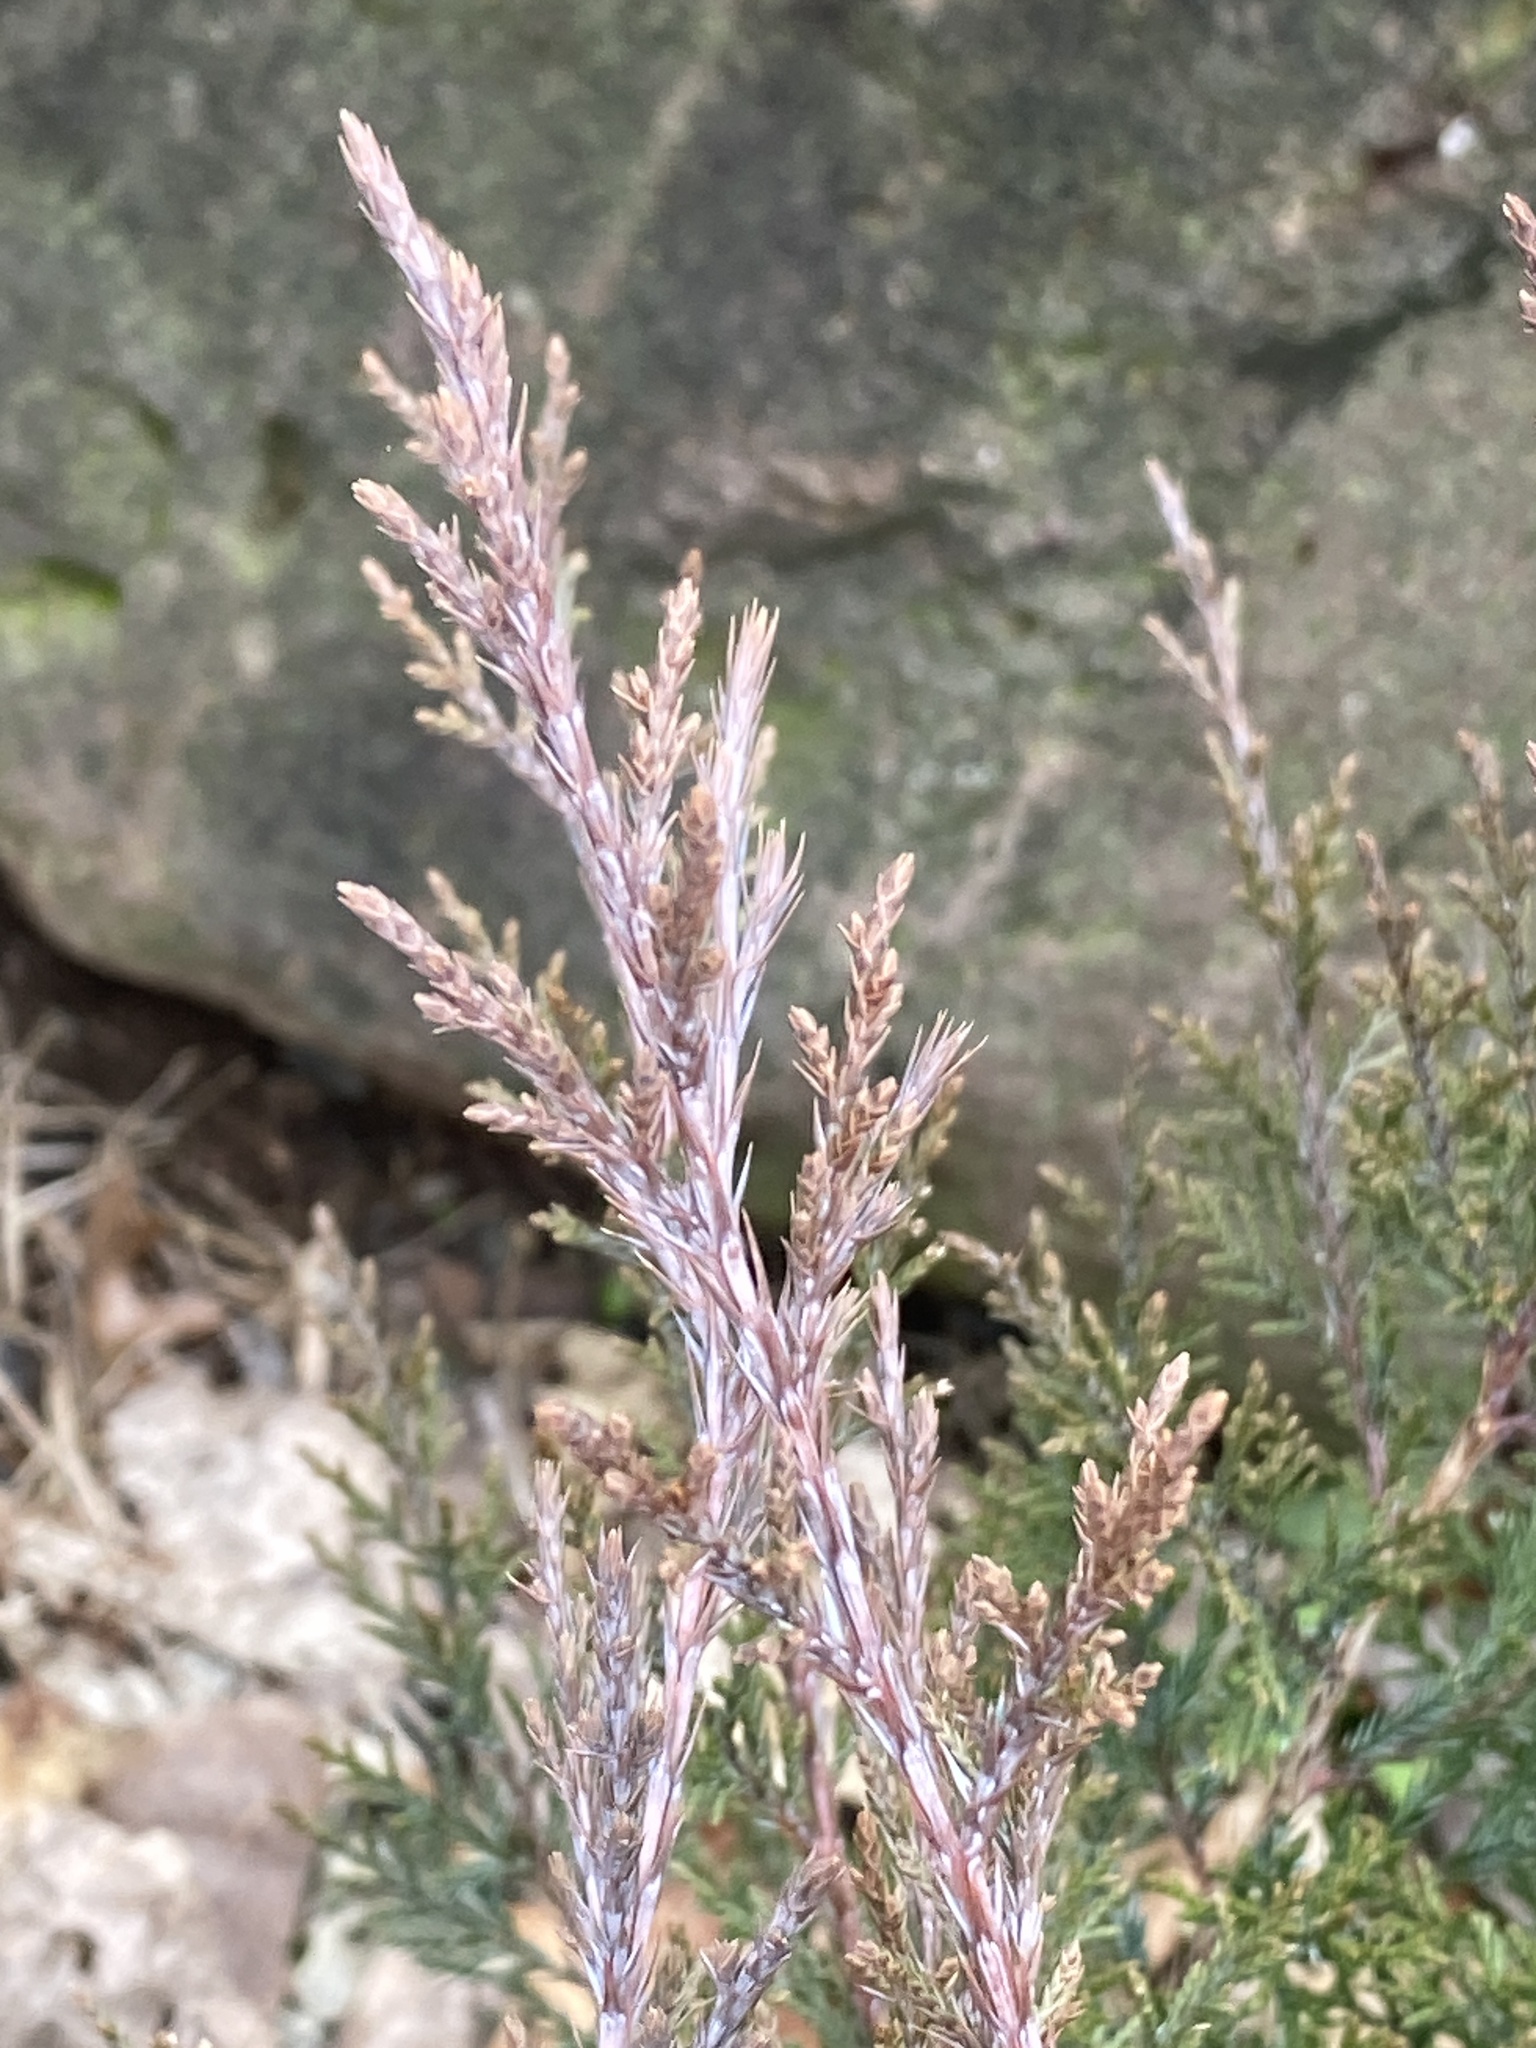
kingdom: Plantae
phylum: Tracheophyta
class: Pinopsida
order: Pinales
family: Cupressaceae
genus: Juniperus
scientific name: Juniperus virginiana
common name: Red juniper
